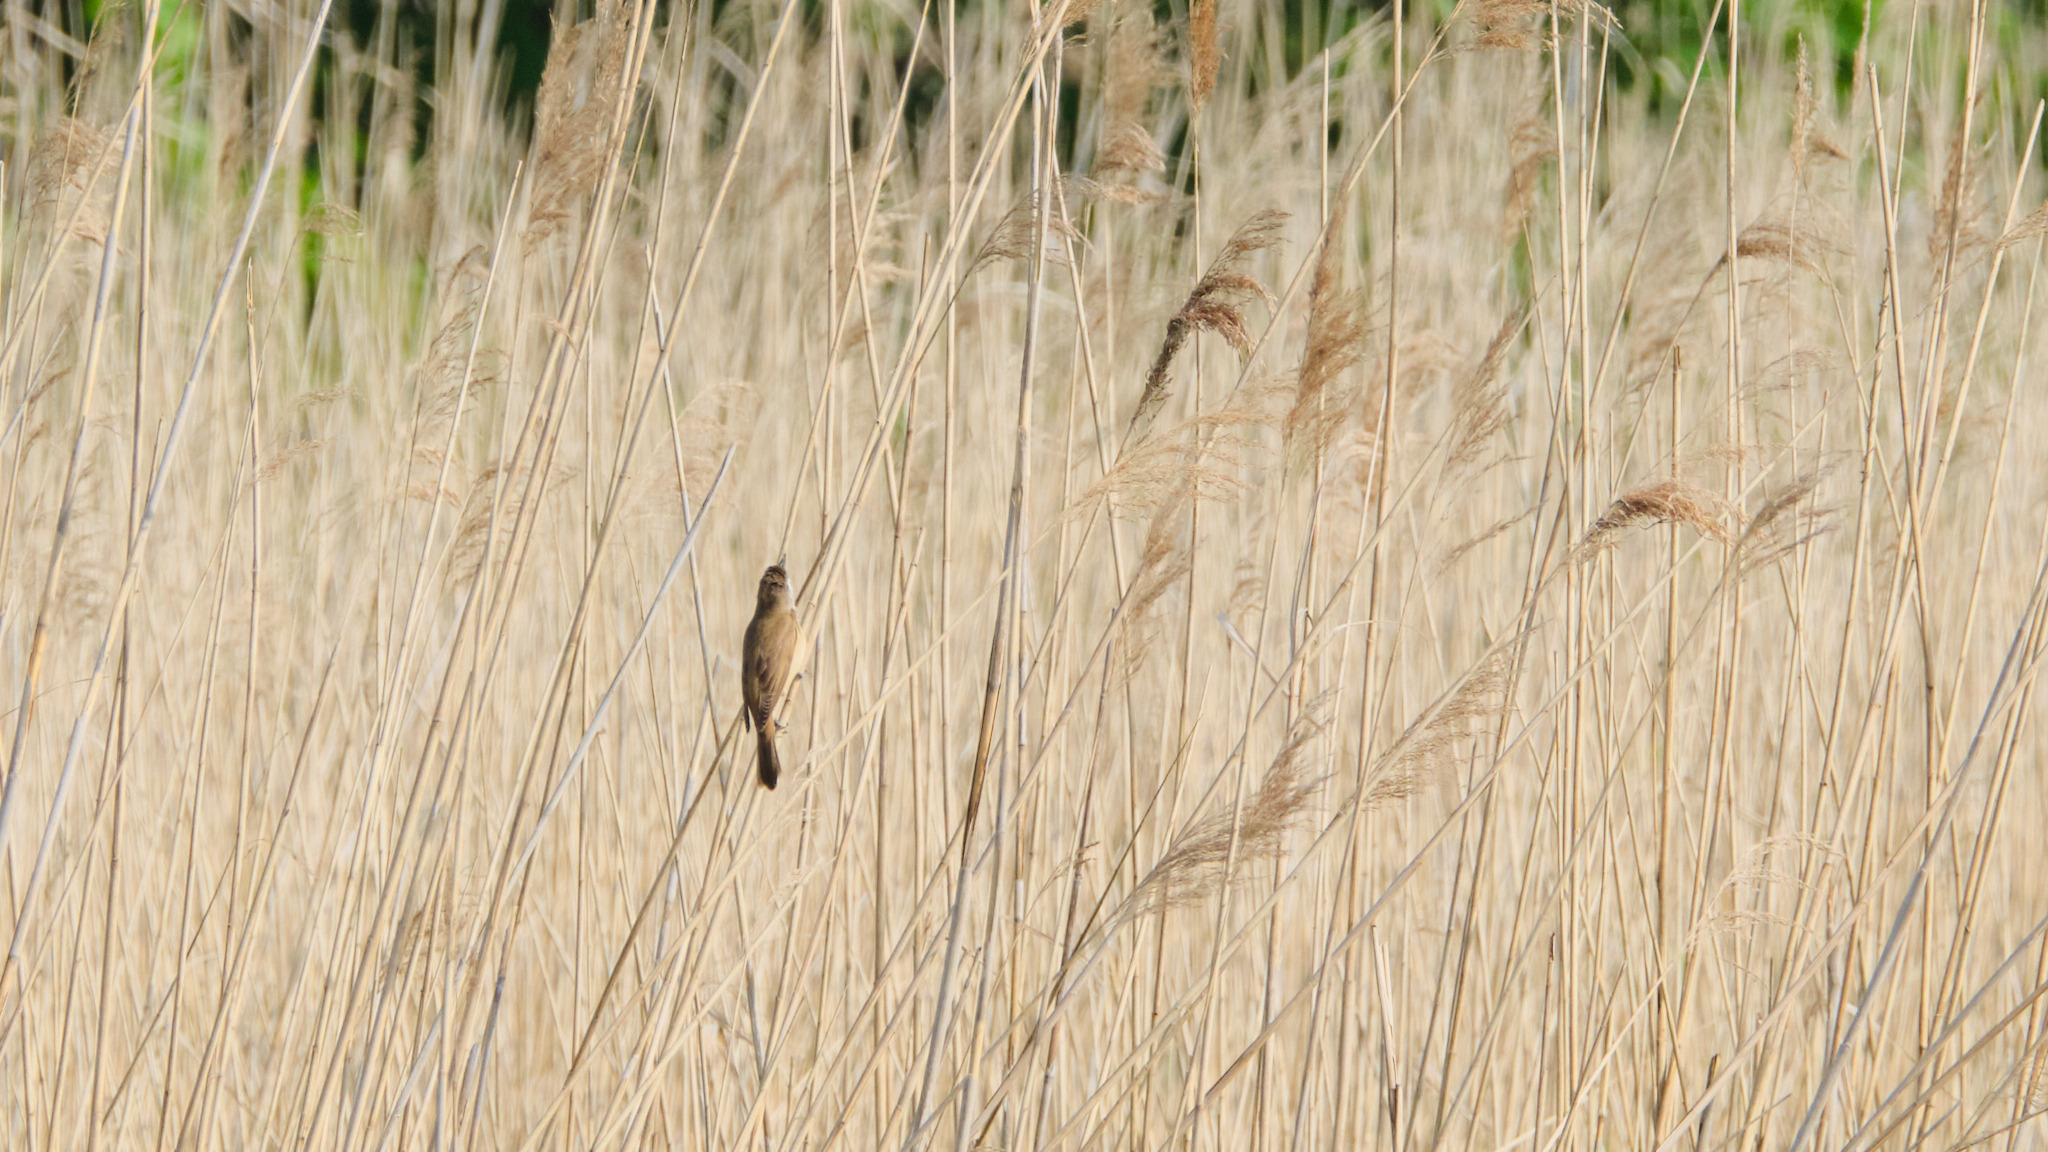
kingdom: Animalia
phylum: Chordata
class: Aves
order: Passeriformes
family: Acrocephalidae
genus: Acrocephalus
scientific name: Acrocephalus arundinaceus
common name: Great reed warbler
